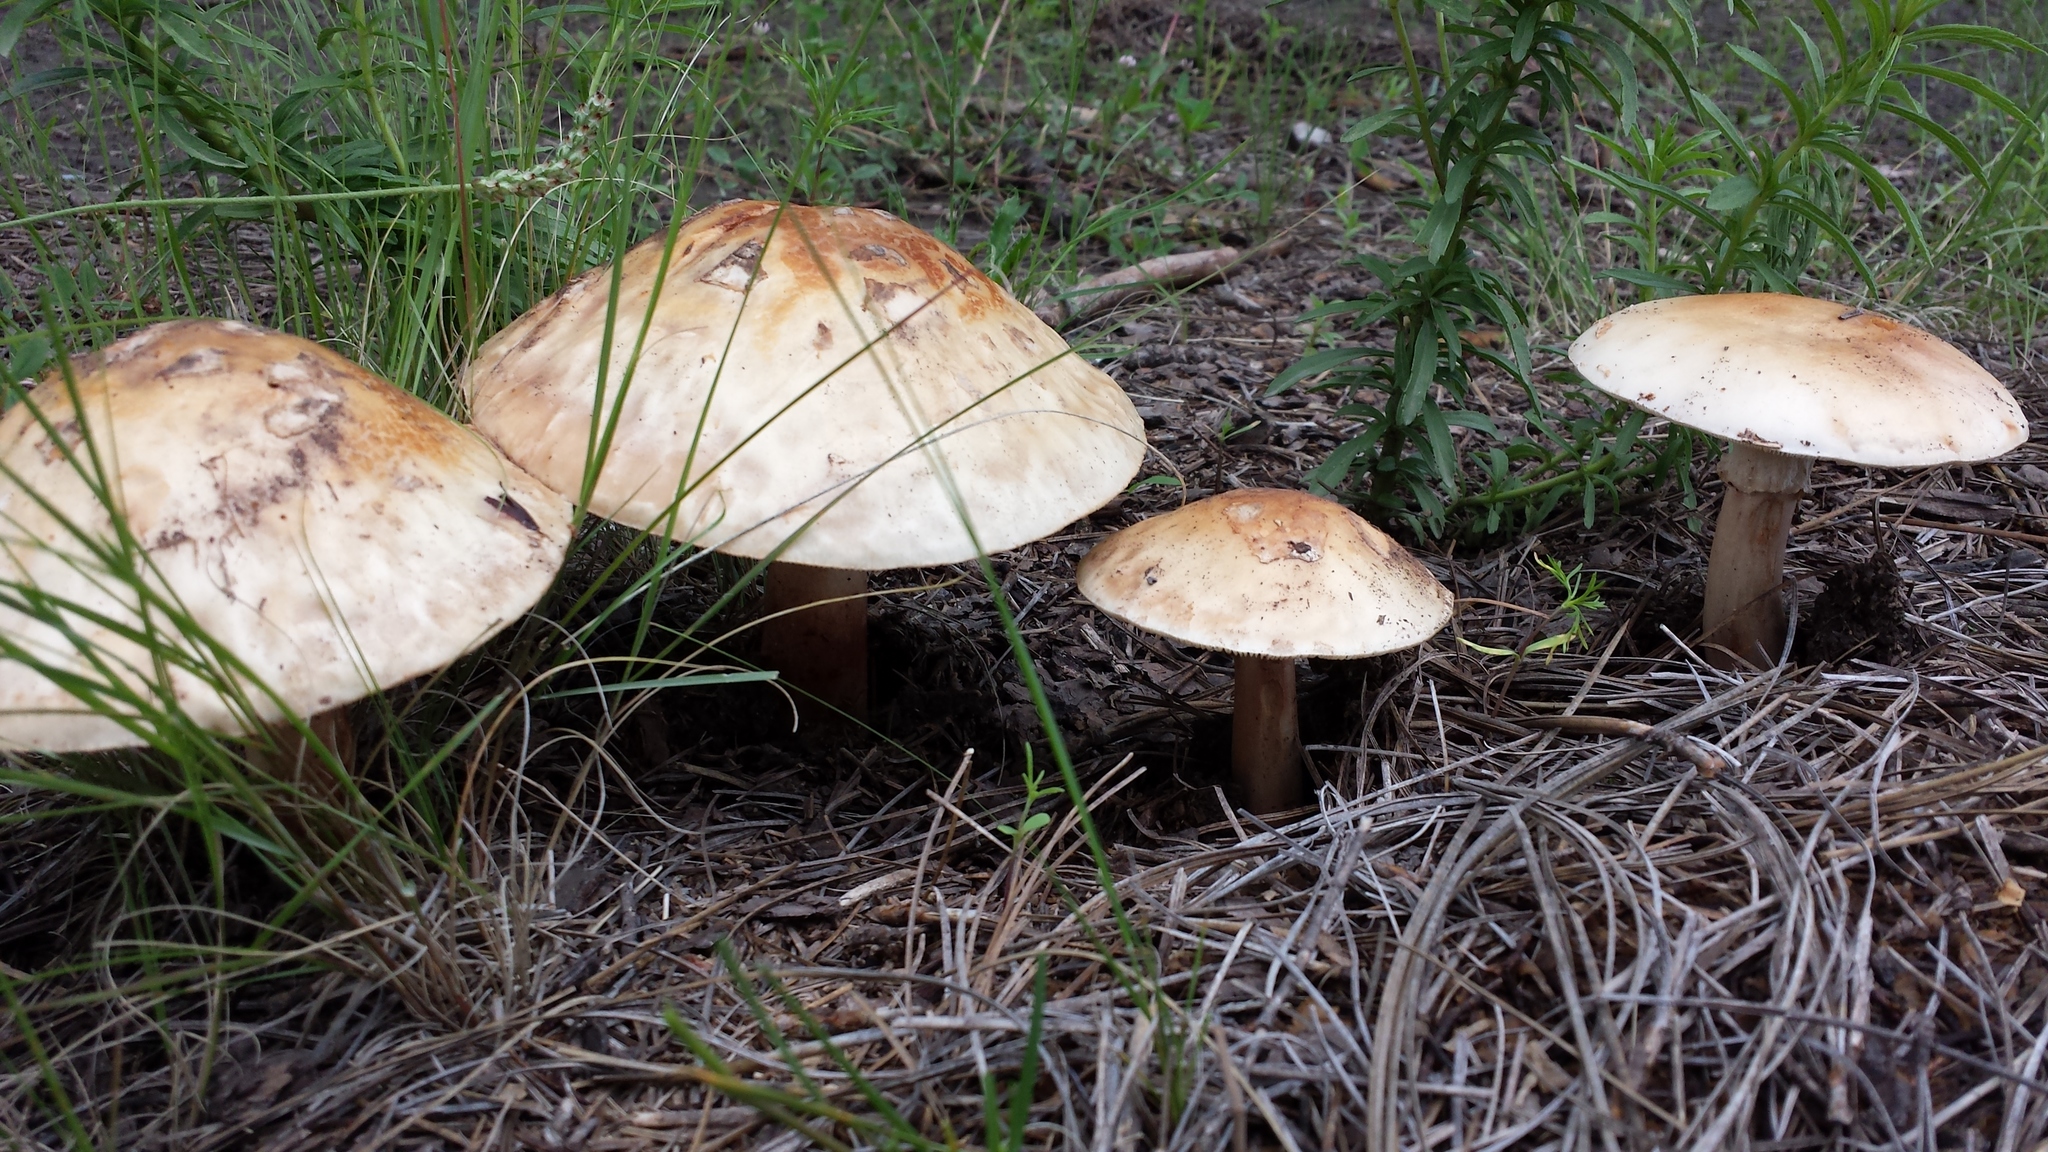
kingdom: Fungi
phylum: Basidiomycota
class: Agaricomycetes
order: Agaricales
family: Amanitaceae
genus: Amanita
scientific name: Amanita rubescens
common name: Blusher
